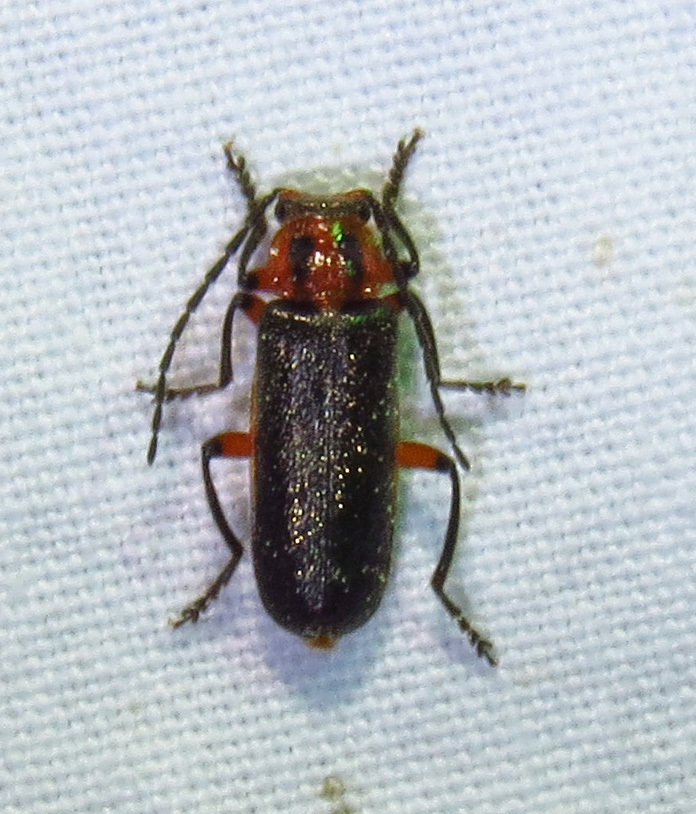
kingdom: Animalia
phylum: Arthropoda
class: Insecta
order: Coleoptera
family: Cantharidae
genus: Atalantycha
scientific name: Atalantycha bilineata
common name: Two-lined leatherwing
